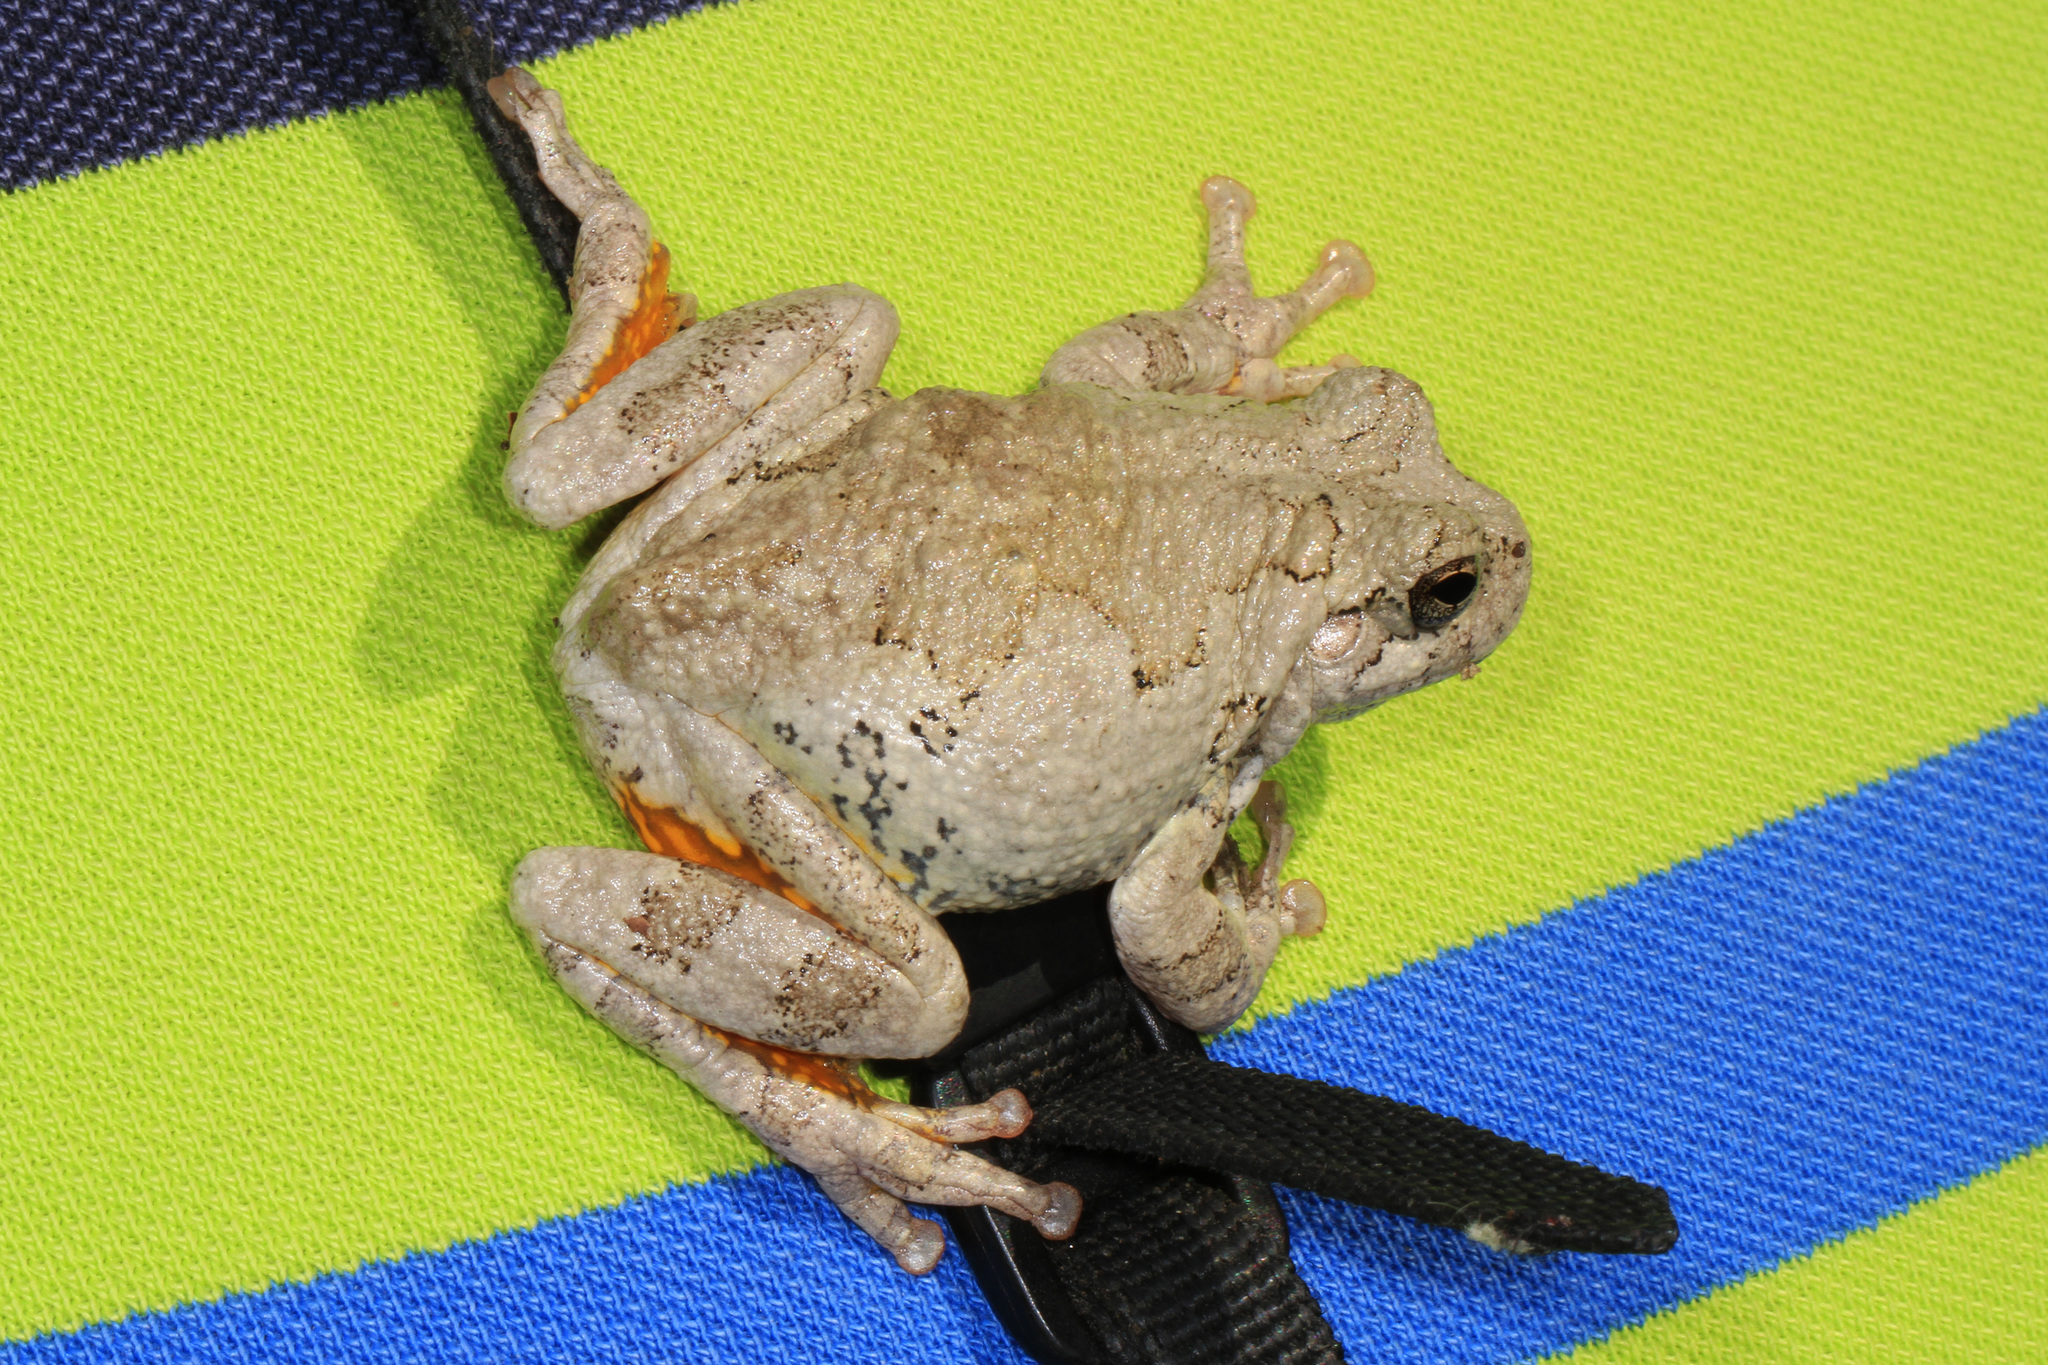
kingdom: Animalia
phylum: Chordata
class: Amphibia
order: Anura
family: Hylidae
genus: Dryophytes
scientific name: Dryophytes chrysoscelis
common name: Cope's gray treefrog
